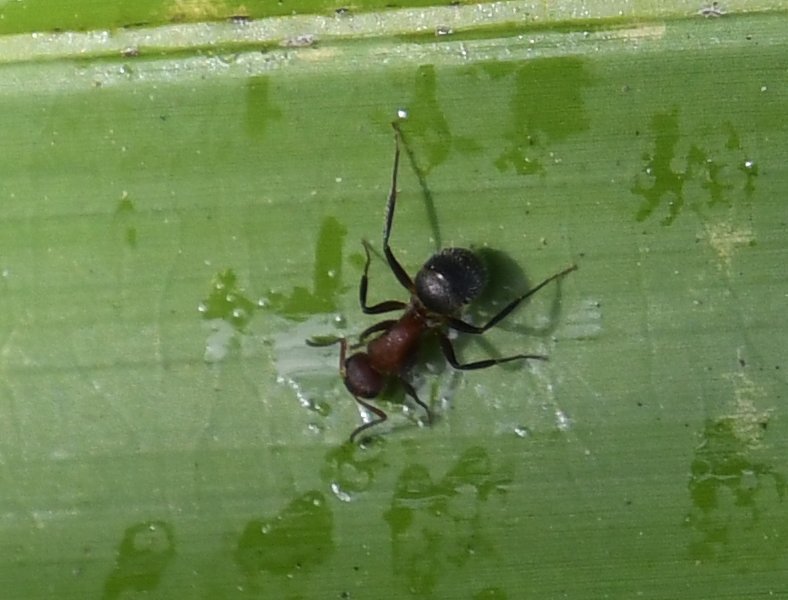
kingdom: Animalia
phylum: Arthropoda
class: Insecta
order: Hymenoptera
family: Formicidae
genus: Camponotus
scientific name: Camponotus planatus
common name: Compact carpenter ant
